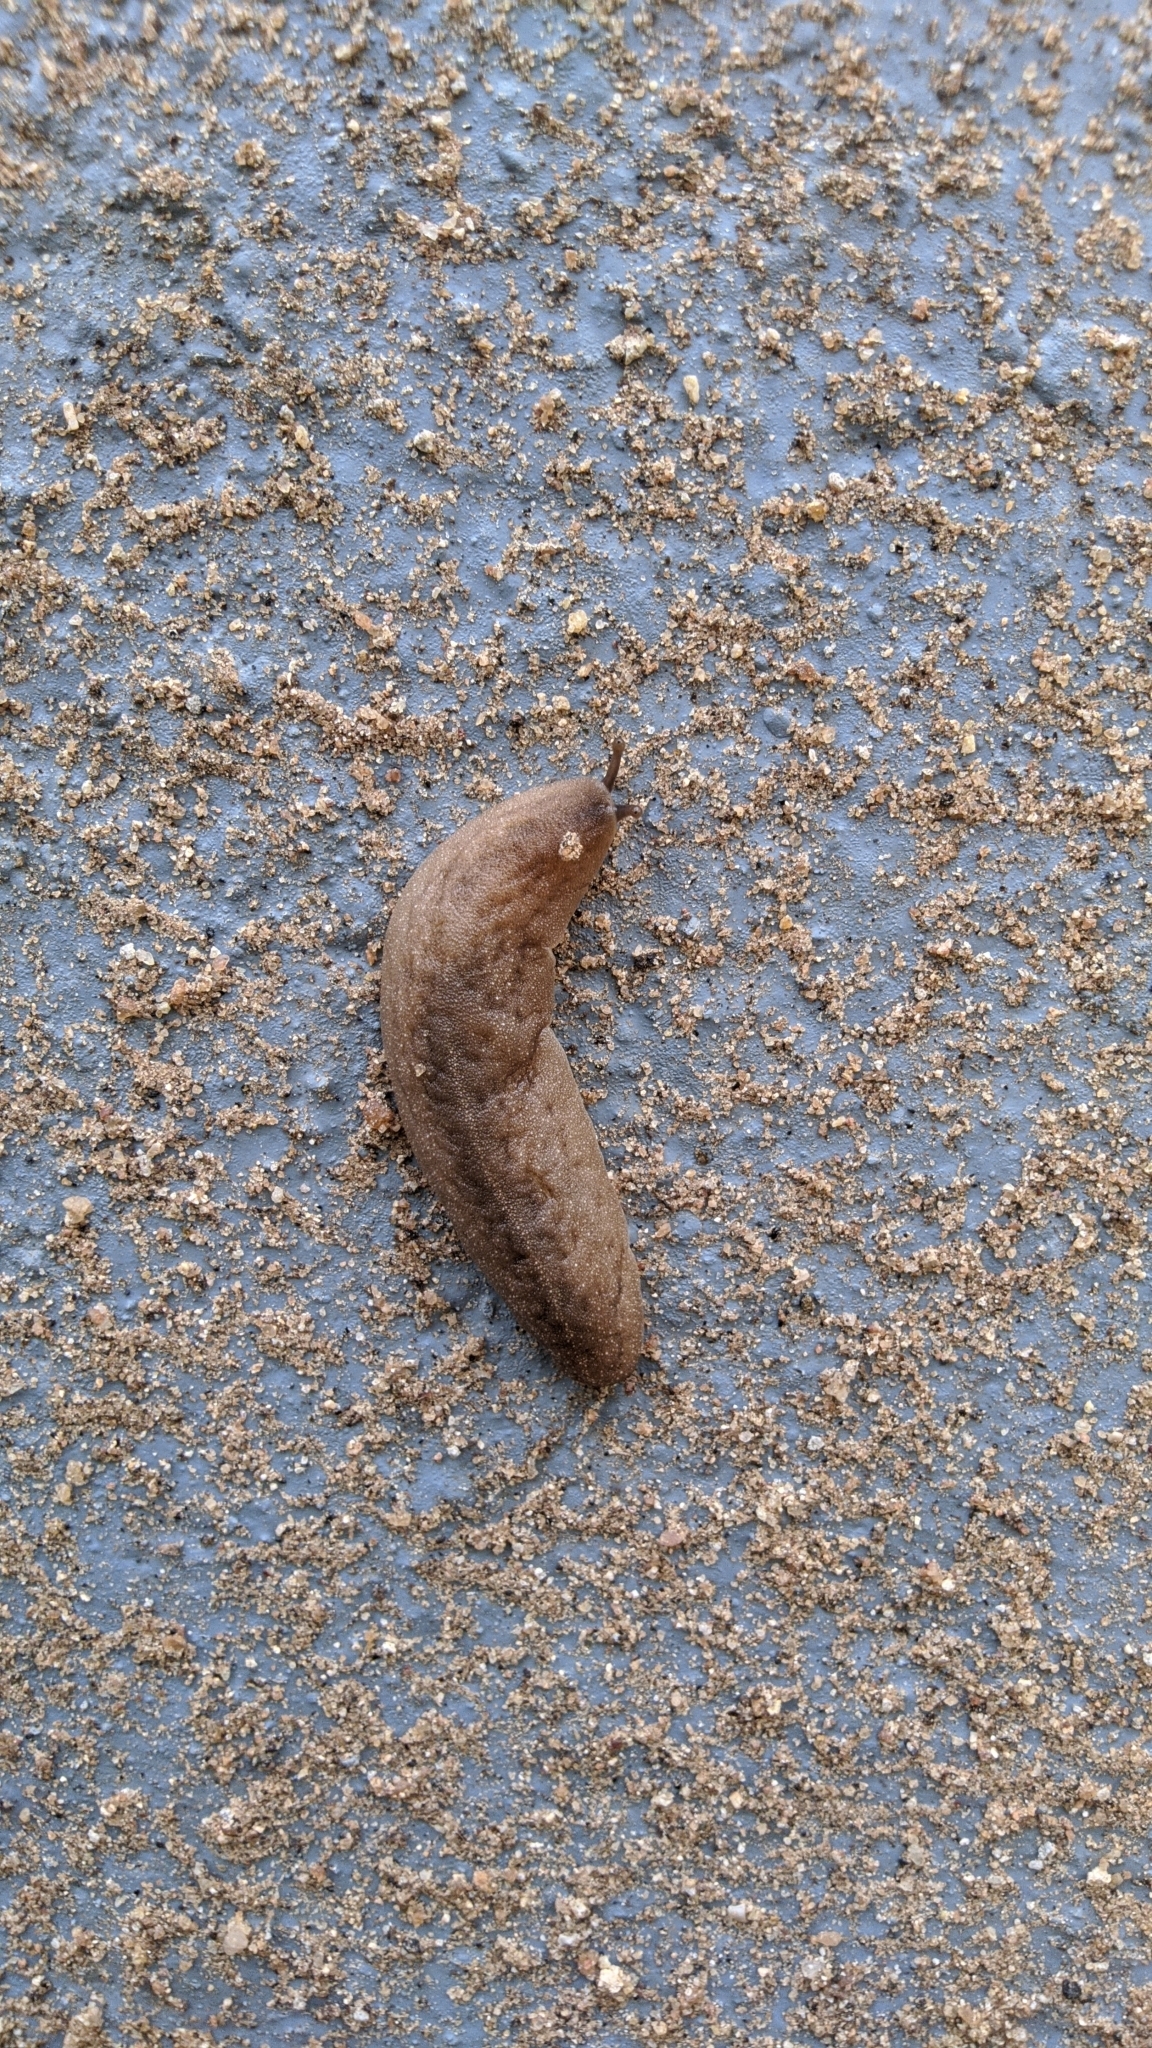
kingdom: Animalia
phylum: Mollusca
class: Gastropoda
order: Systellommatophora
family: Veronicellidae
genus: Laevicaulis
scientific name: Laevicaulis alte
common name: Tropical leatherleaf
